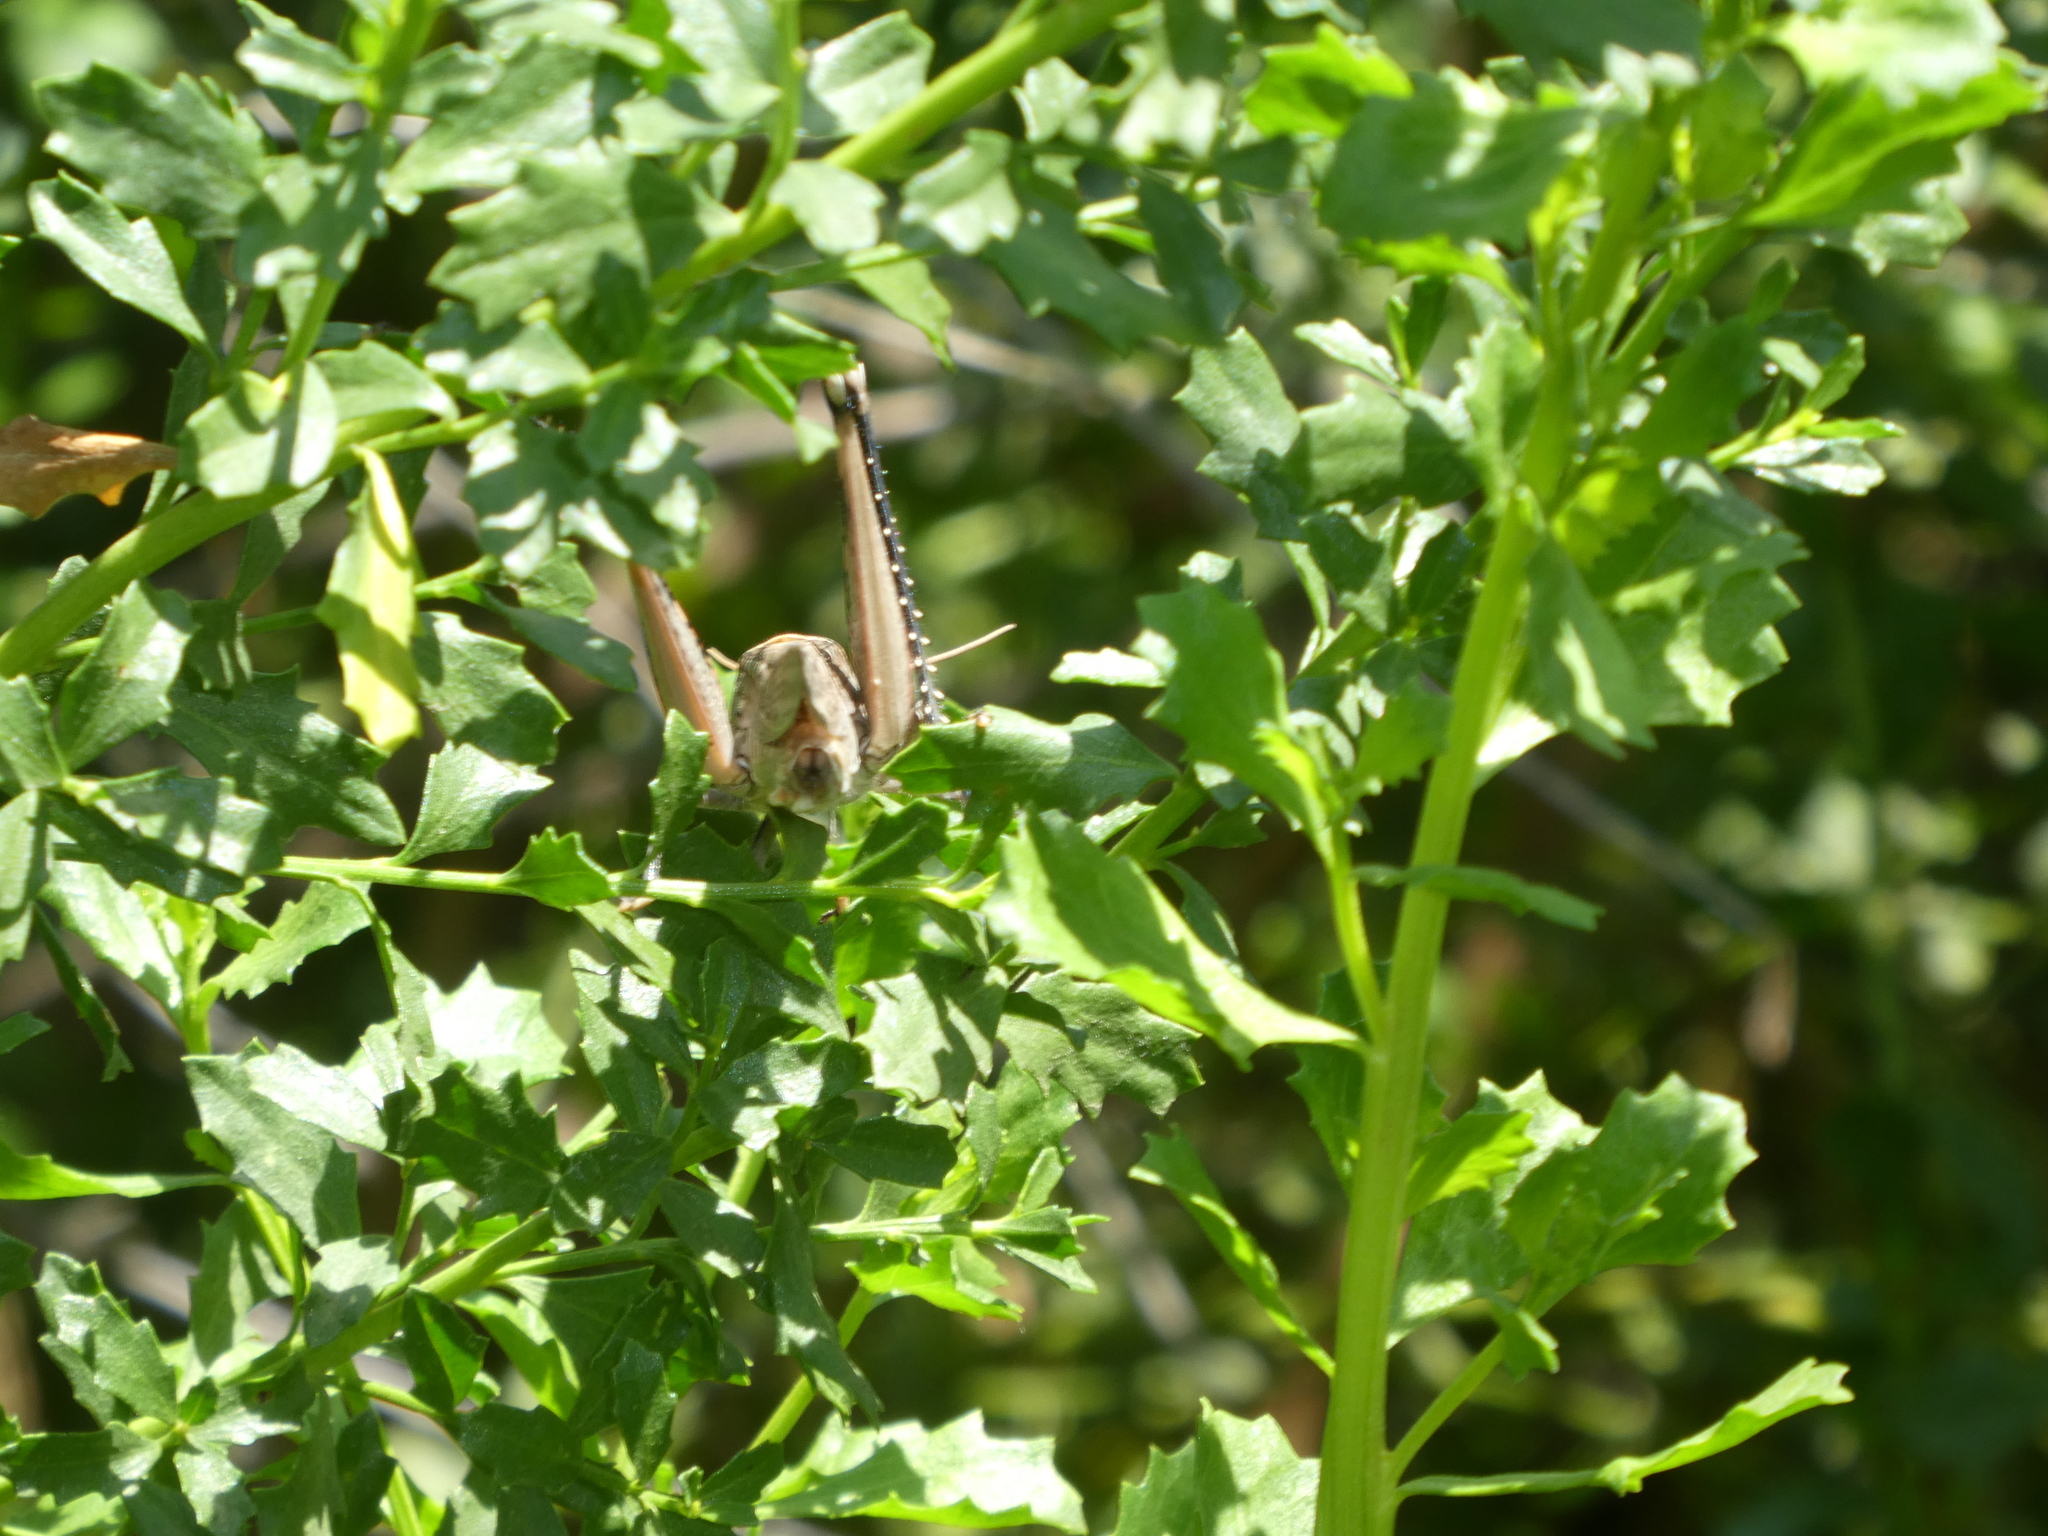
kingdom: Animalia
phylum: Arthropoda
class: Insecta
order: Orthoptera
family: Acrididae
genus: Schistocerca
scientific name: Schistocerca nitens
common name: Vagrant grasshopper
